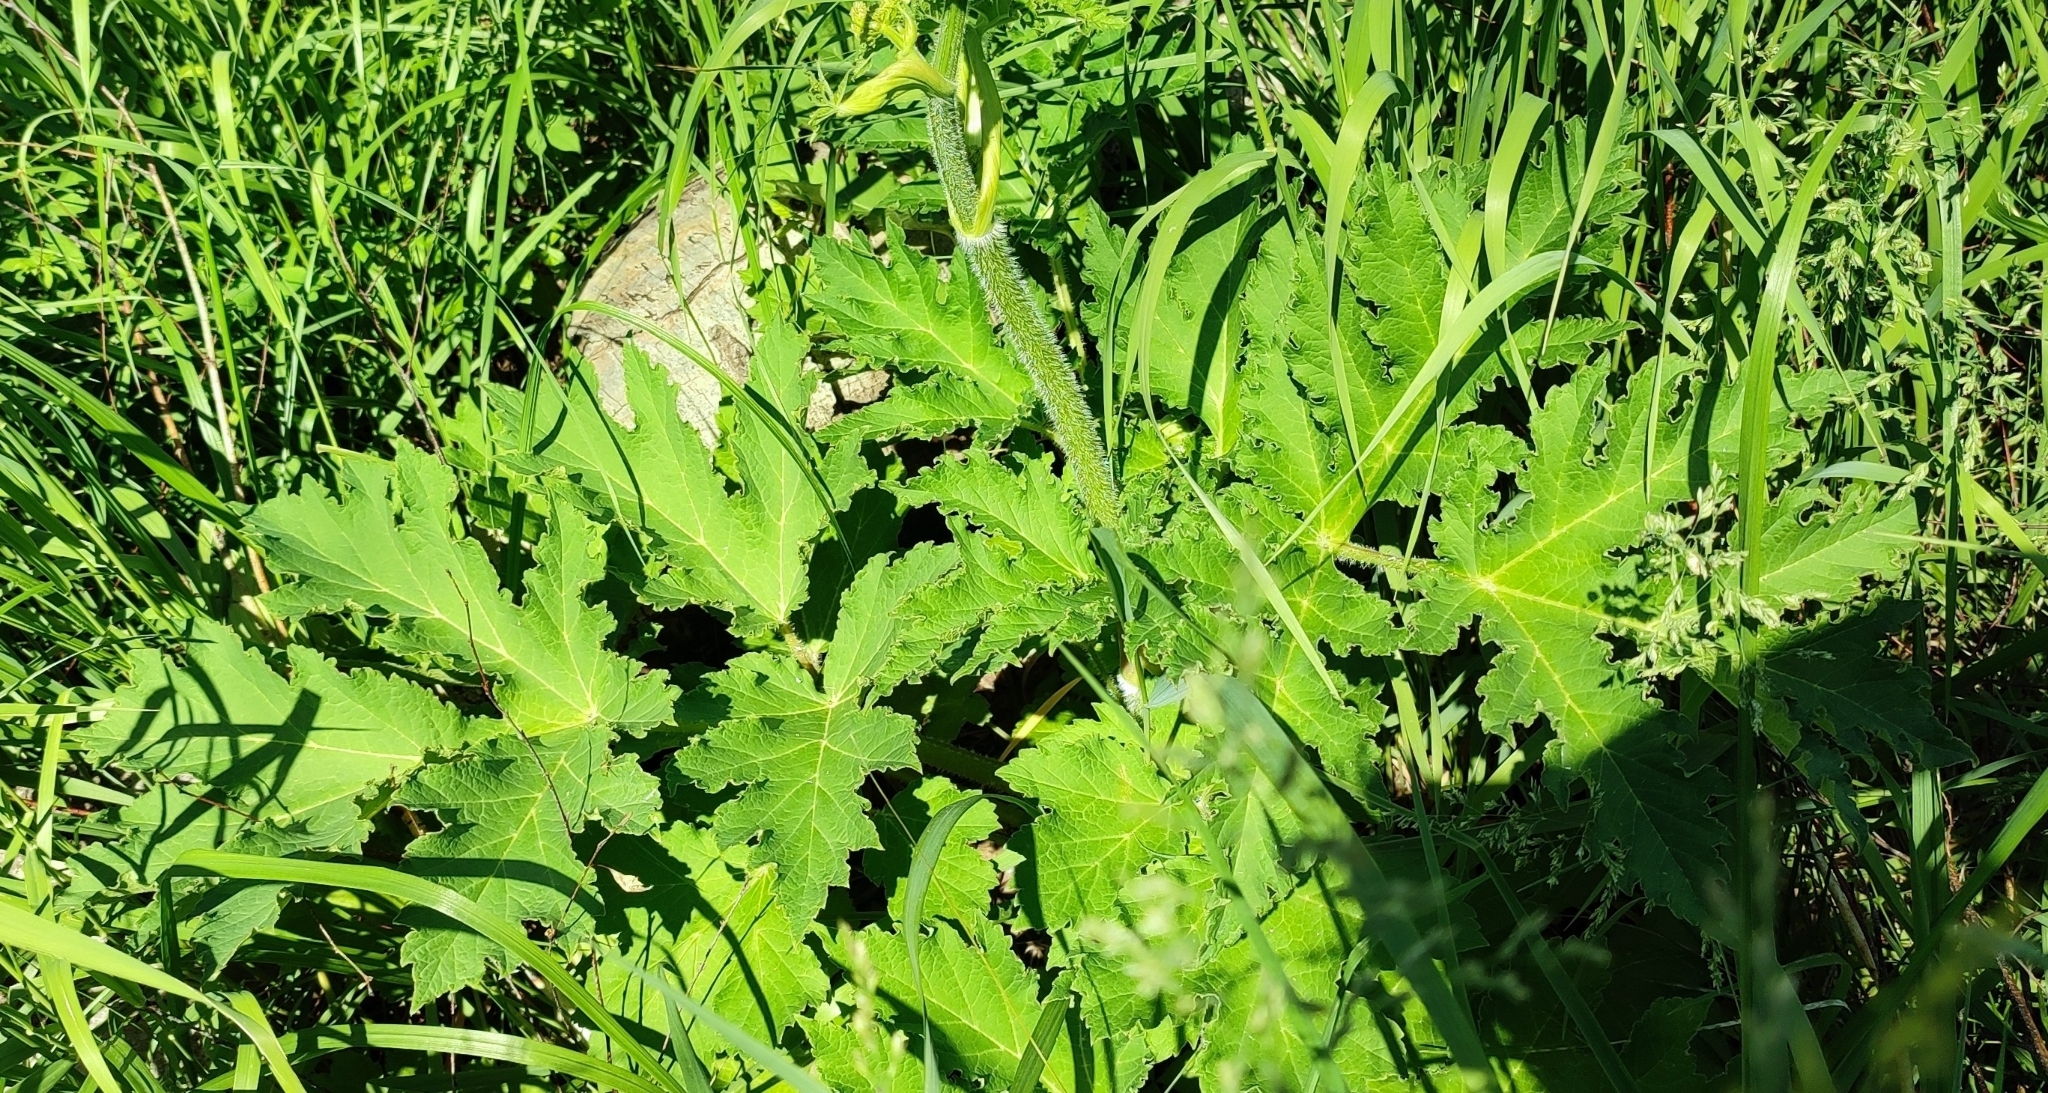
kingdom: Plantae
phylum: Tracheophyta
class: Magnoliopsida
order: Apiales
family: Apiaceae
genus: Heracleum
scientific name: Heracleum sphondylium
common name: Hogweed
